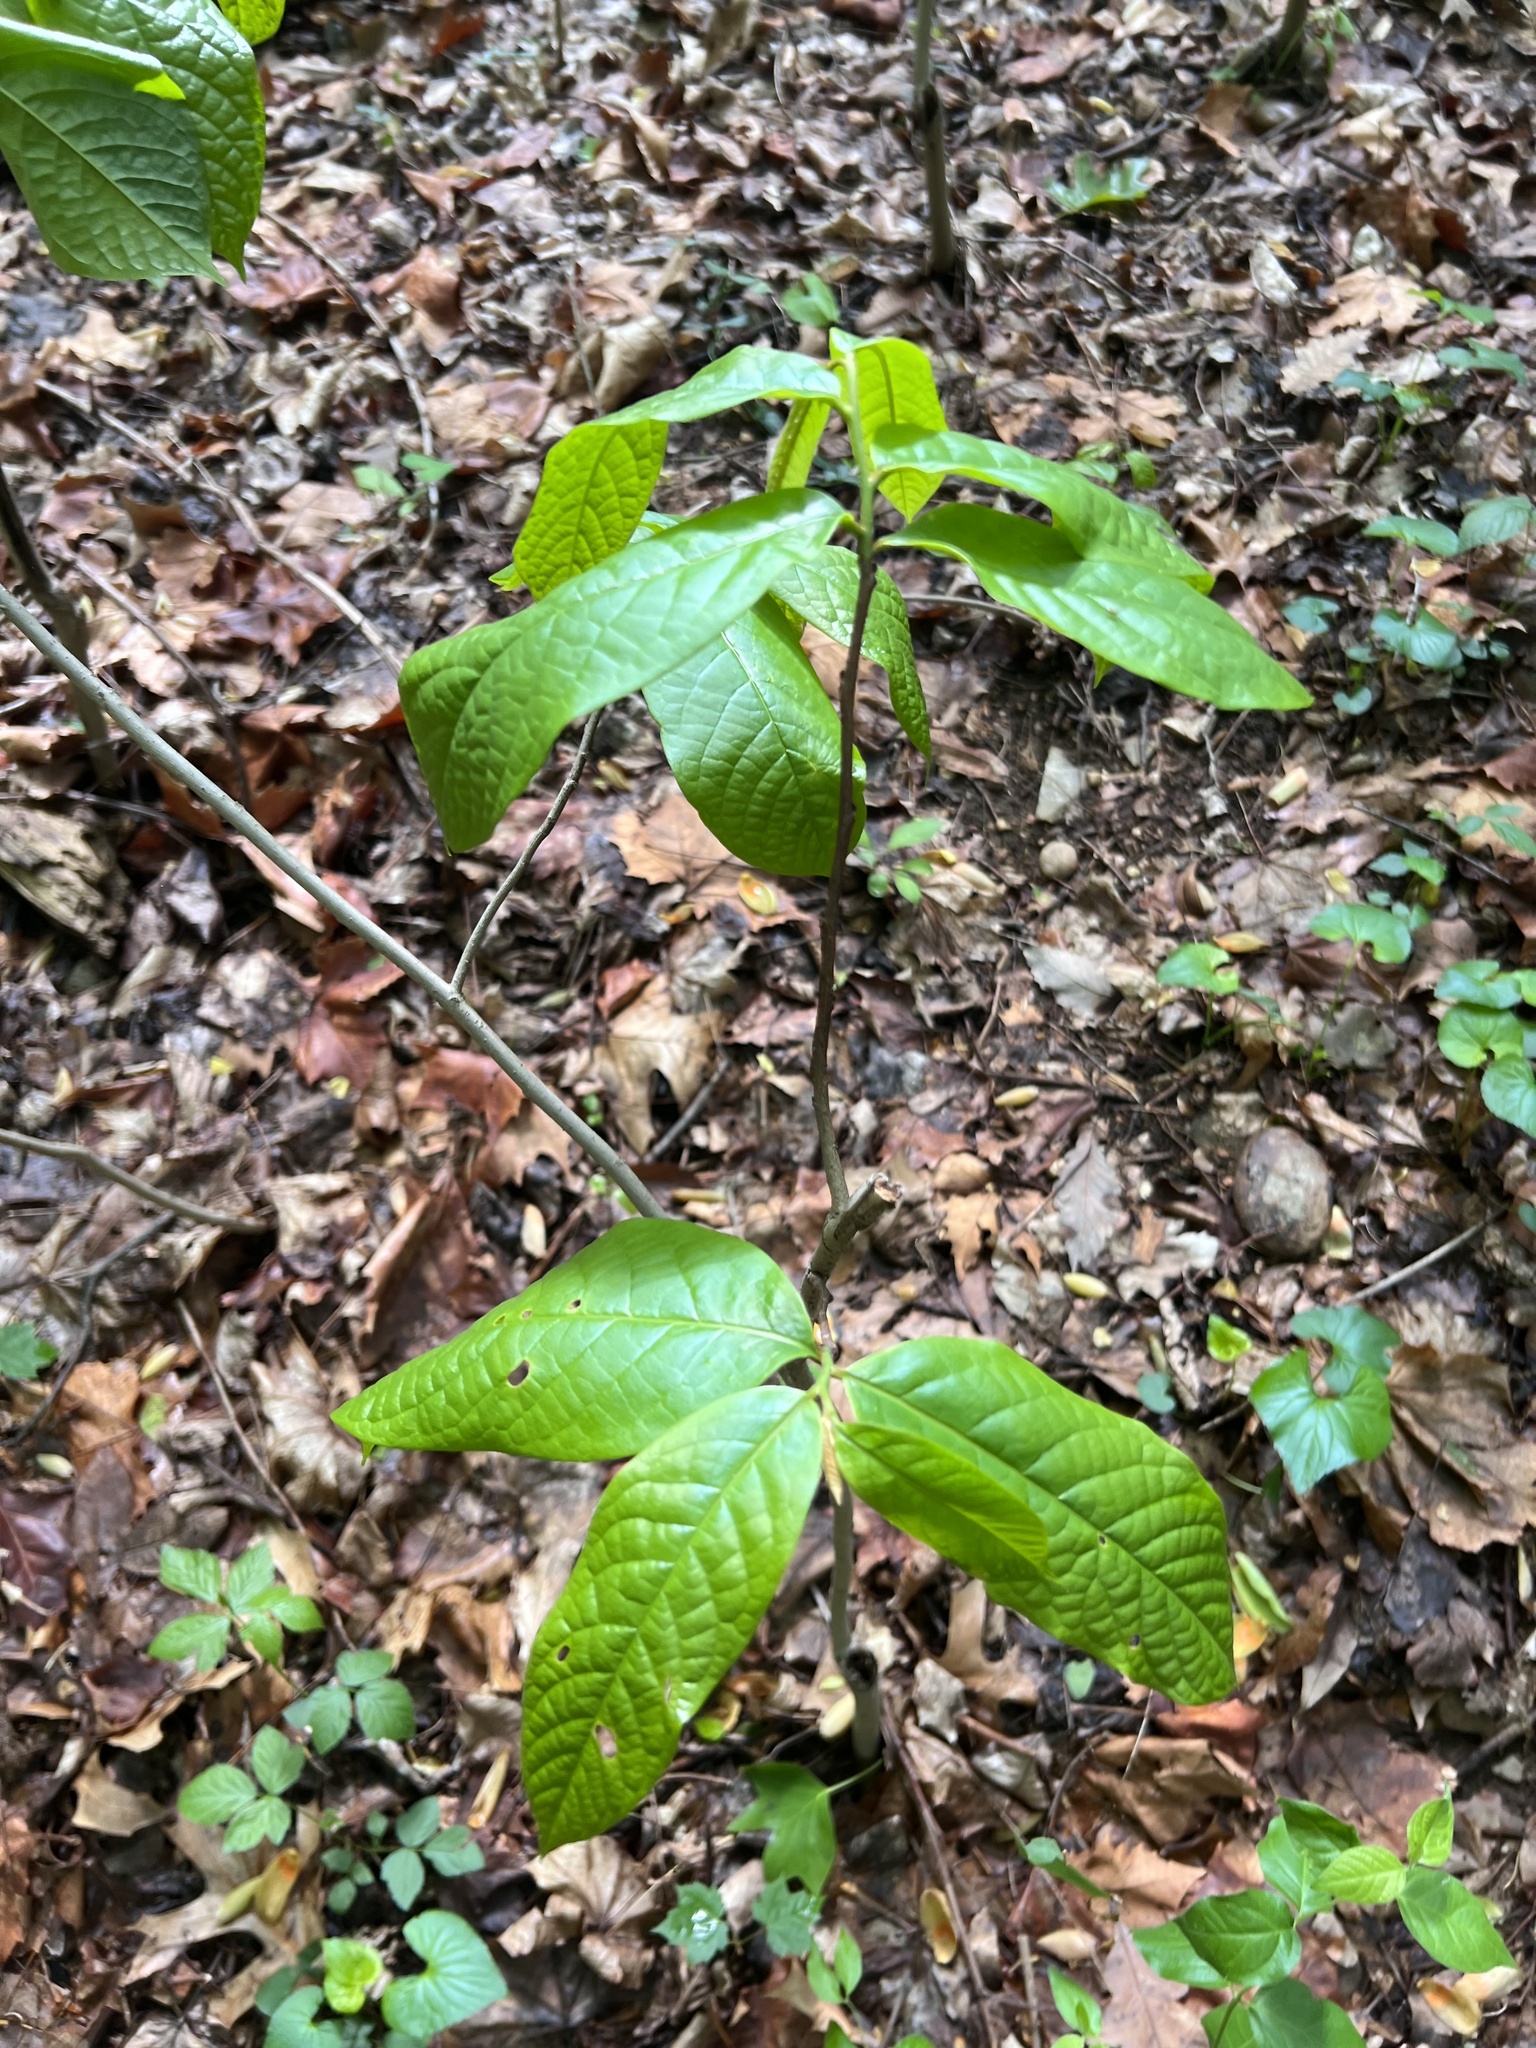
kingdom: Plantae
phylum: Tracheophyta
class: Magnoliopsida
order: Magnoliales
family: Annonaceae
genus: Asimina
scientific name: Asimina triloba
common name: Dog-banana
